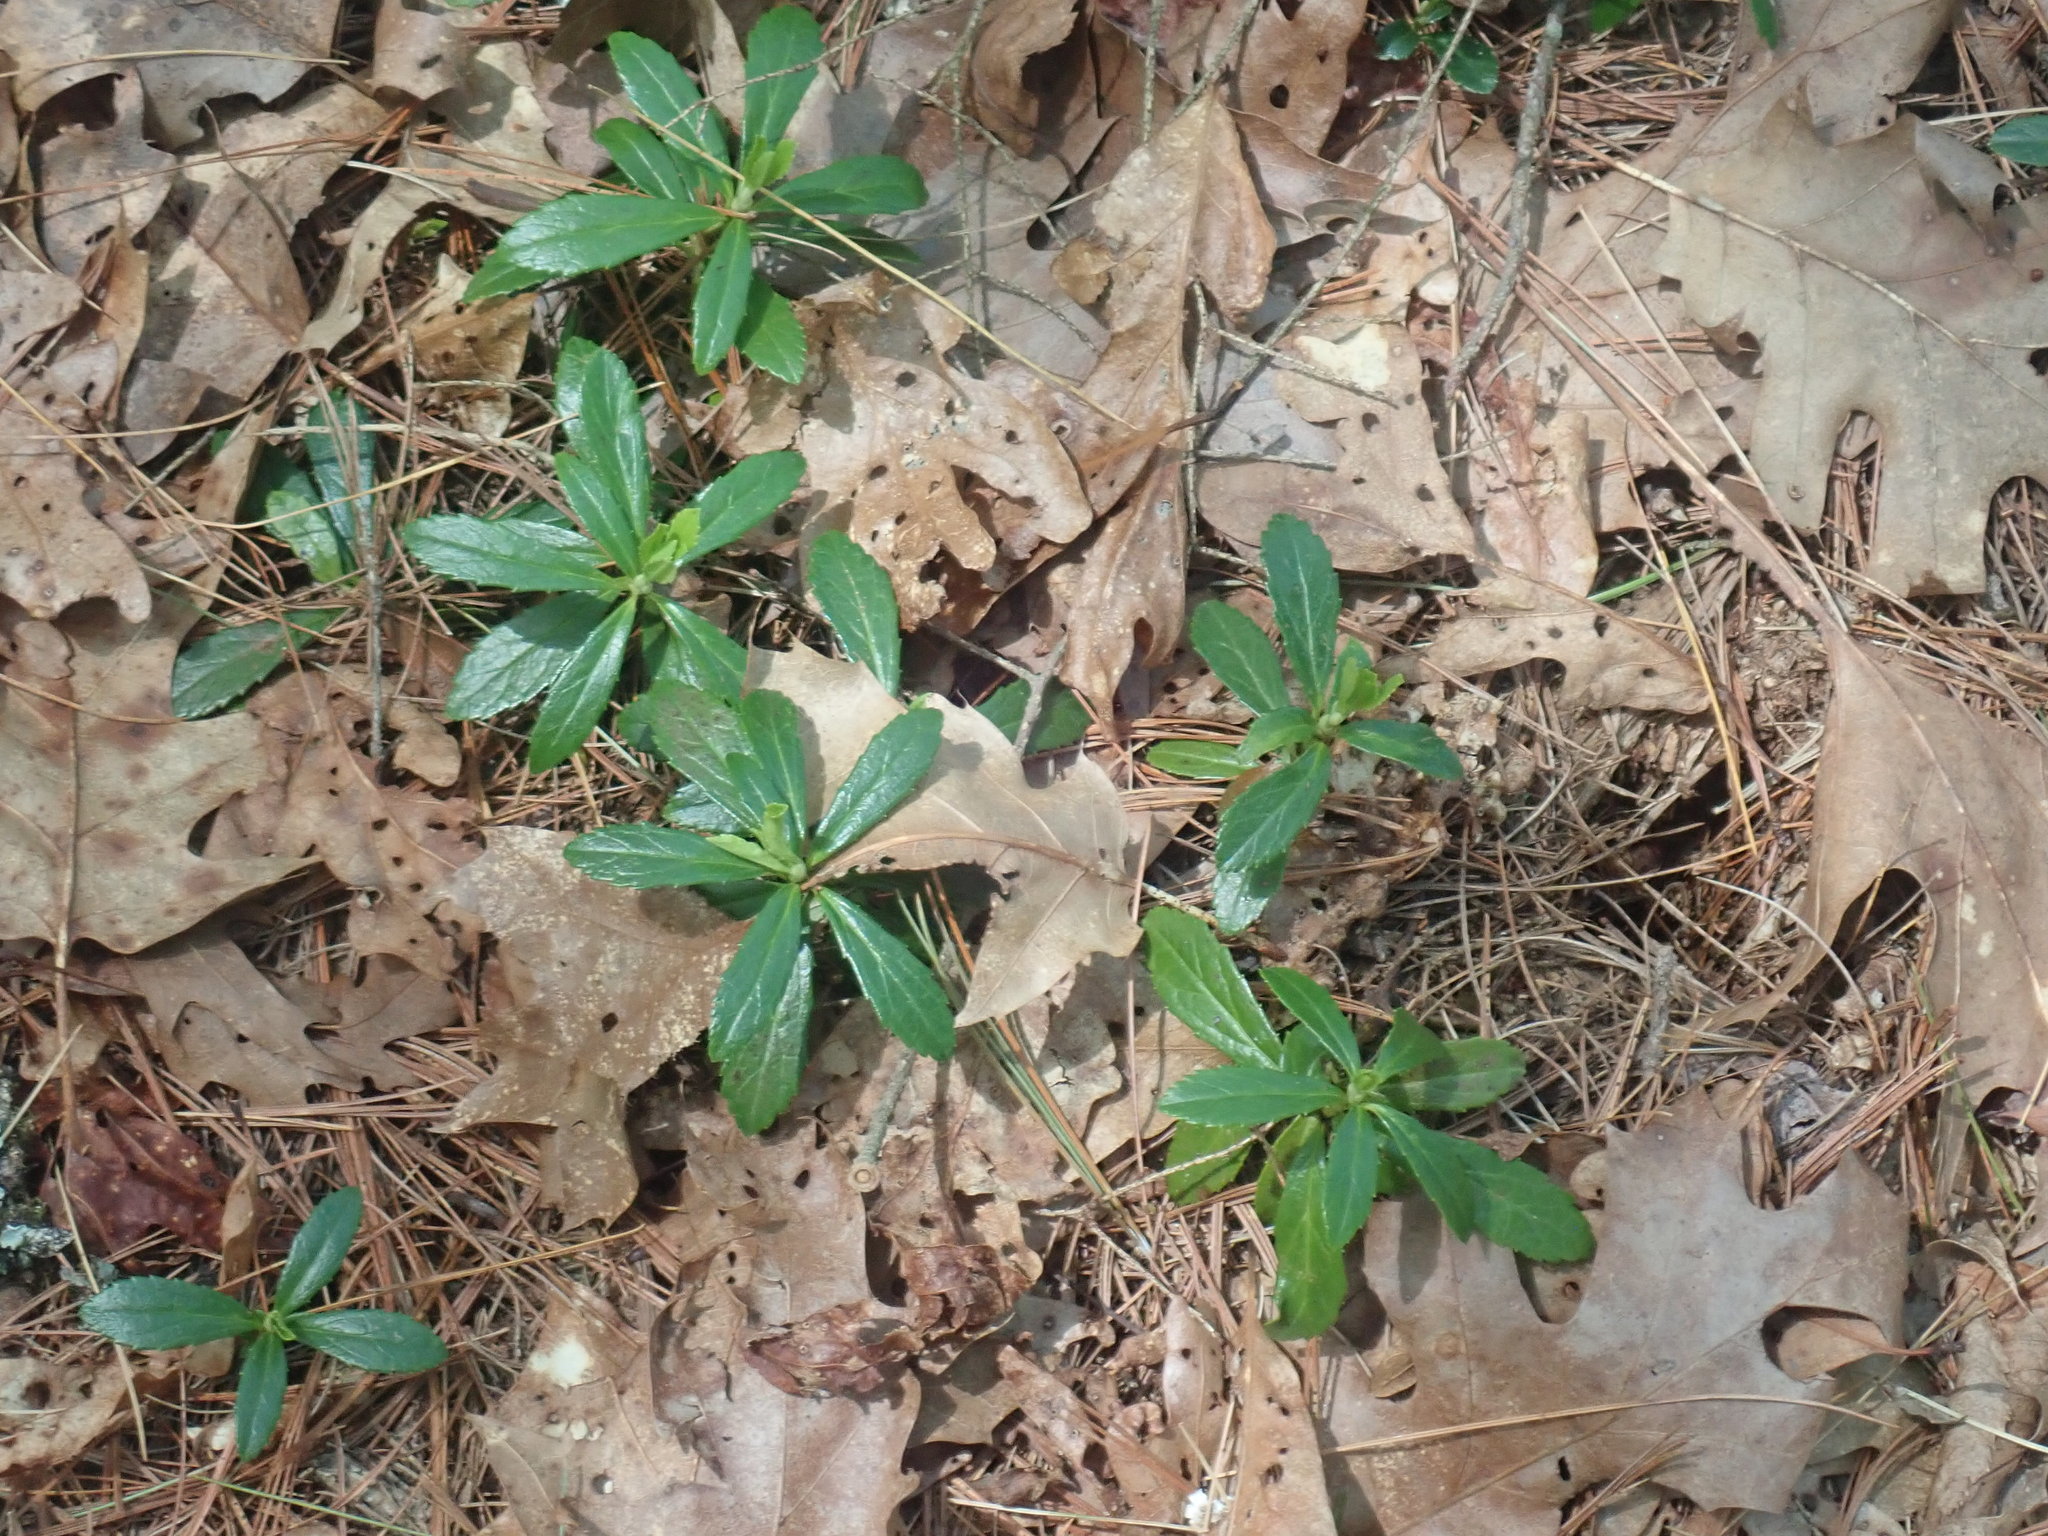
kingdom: Plantae
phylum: Tracheophyta
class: Magnoliopsida
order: Ericales
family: Ericaceae
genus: Chimaphila
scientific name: Chimaphila umbellata
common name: Pipsissewa
